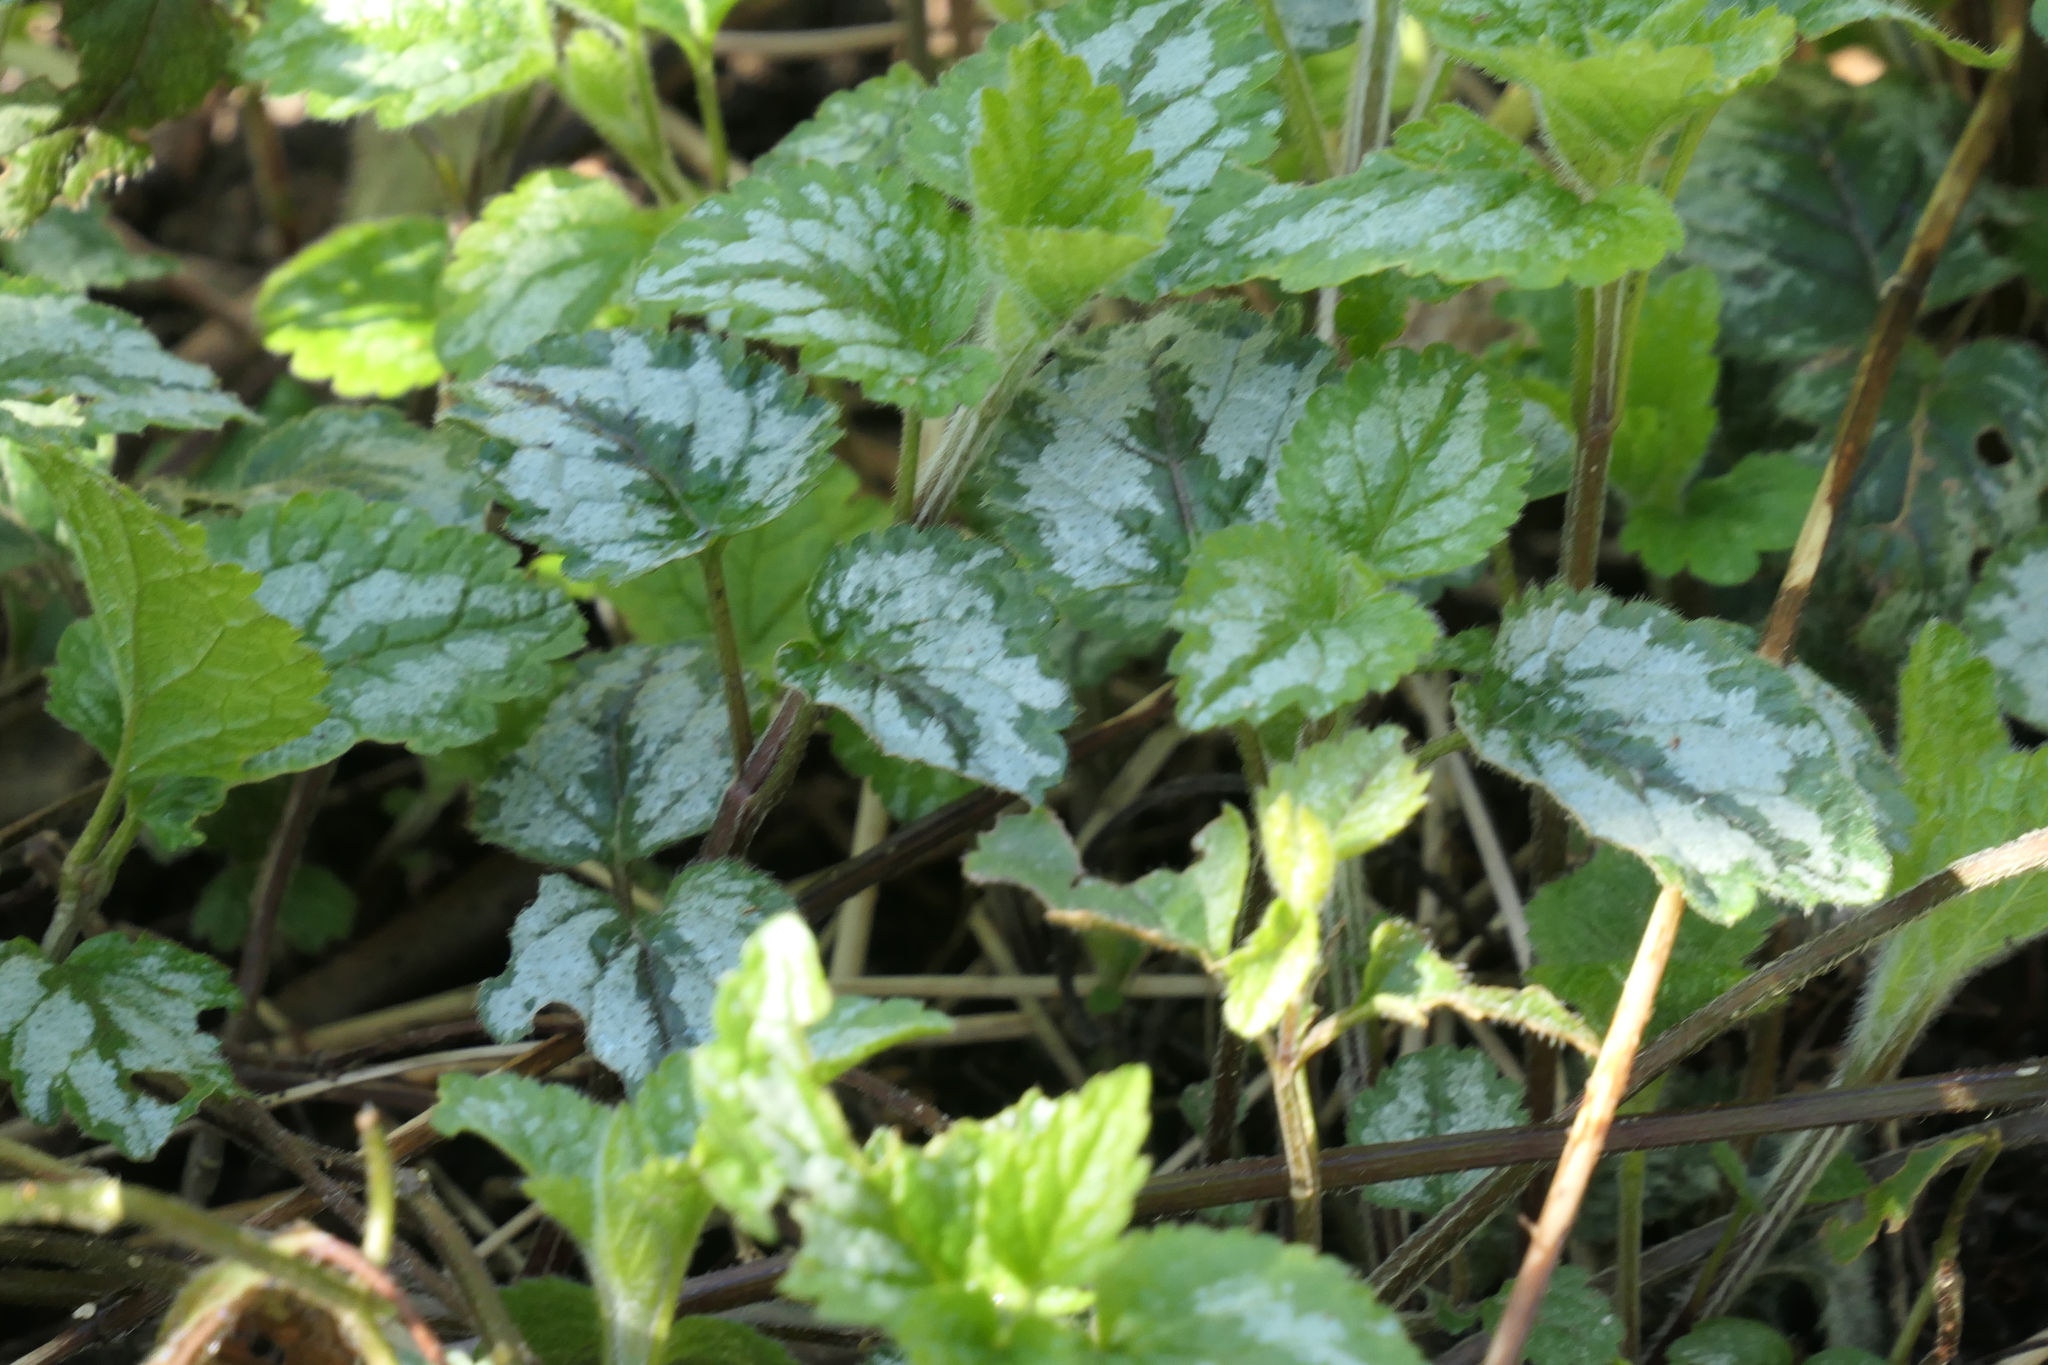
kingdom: Plantae
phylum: Tracheophyta
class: Magnoliopsida
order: Lamiales
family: Lamiaceae
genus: Lamium
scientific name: Lamium galeobdolon
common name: Yellow archangel
